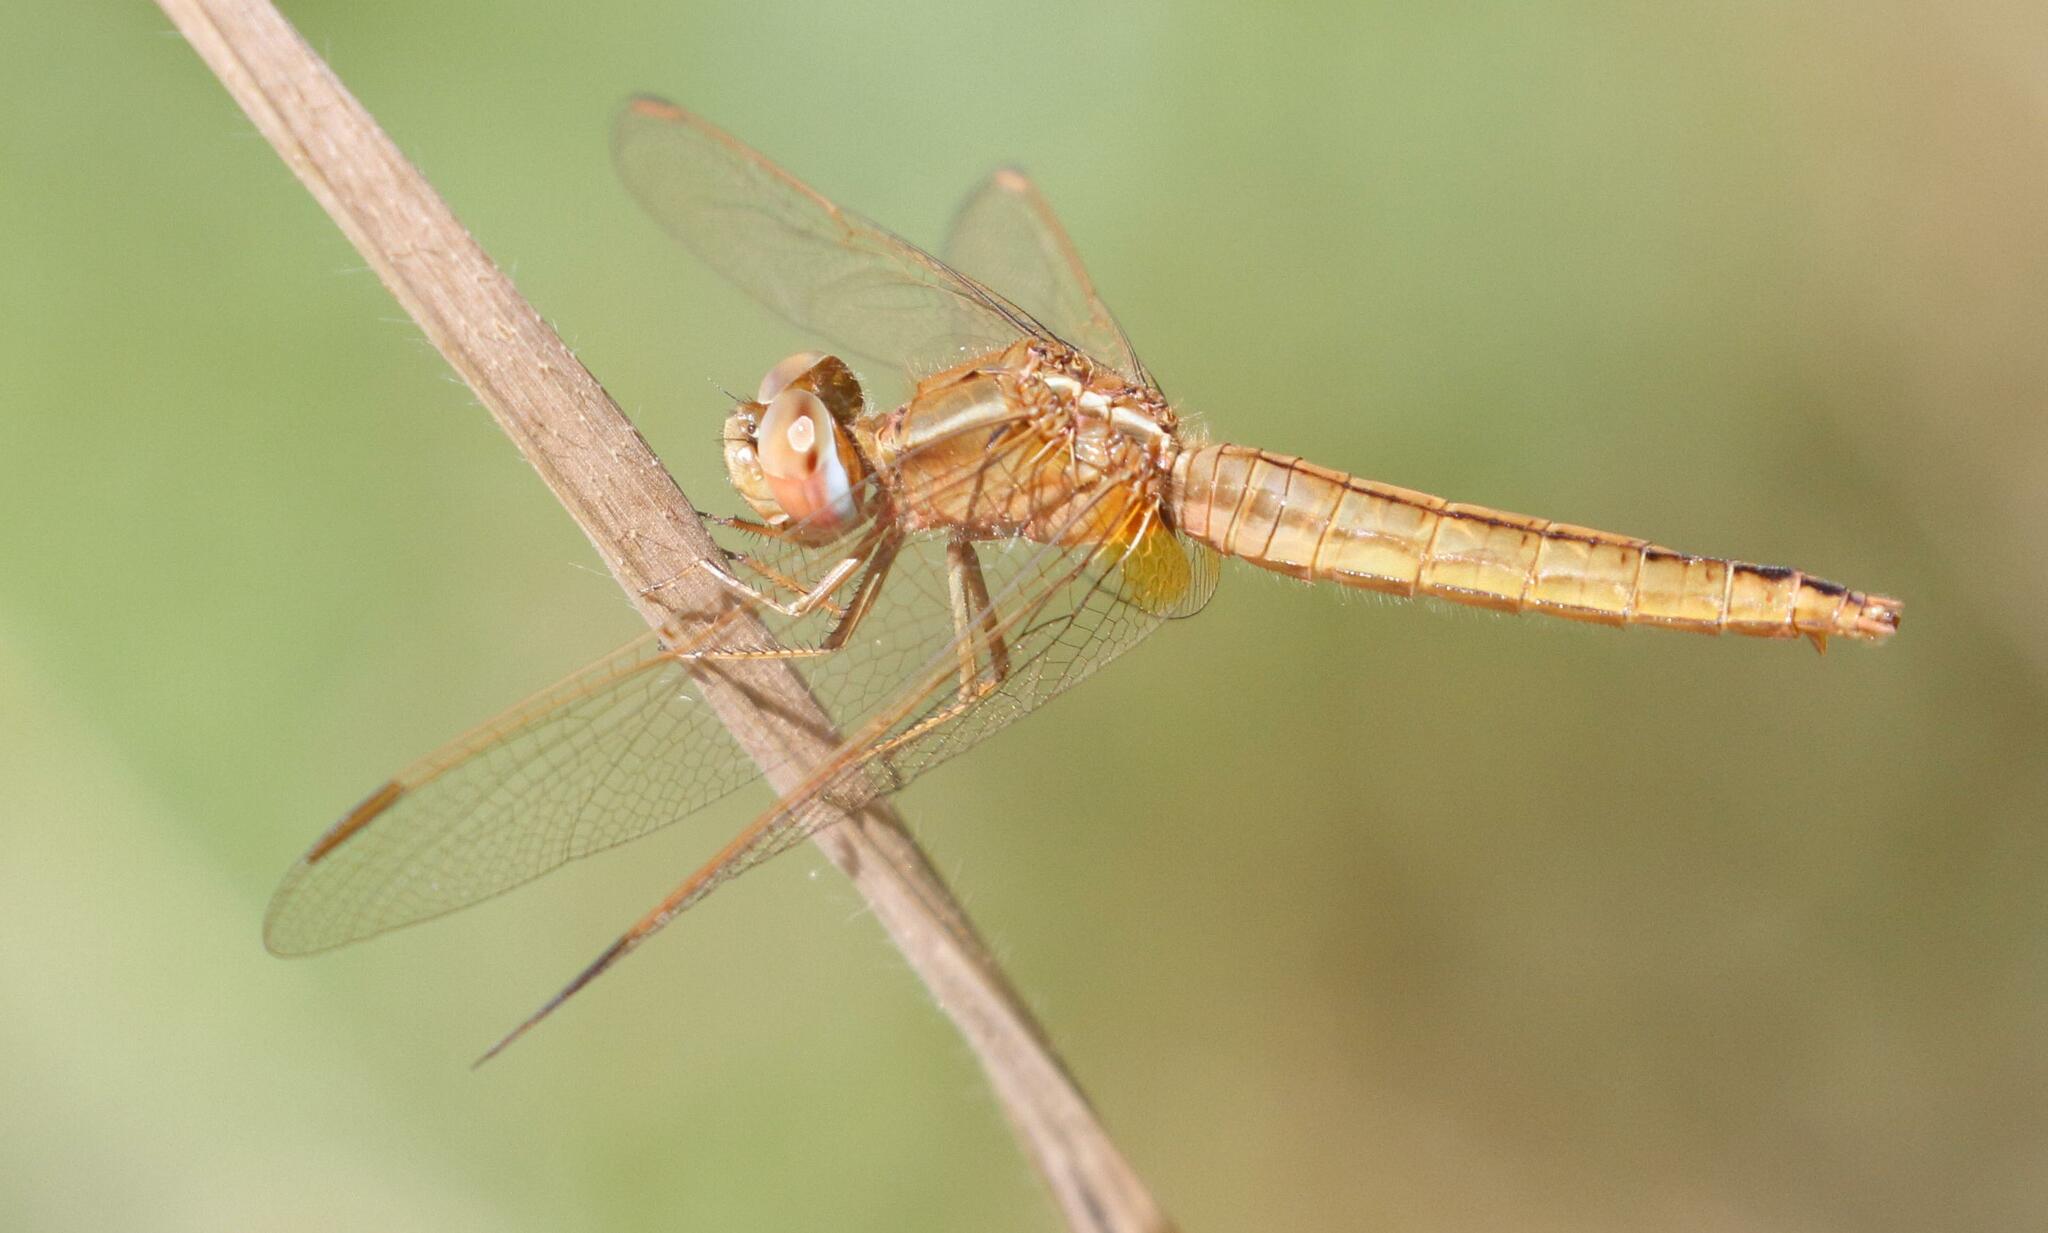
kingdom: Animalia
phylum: Arthropoda
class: Insecta
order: Odonata
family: Libellulidae
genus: Crocothemis
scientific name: Crocothemis erythraea
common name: Scarlet dragonfly
